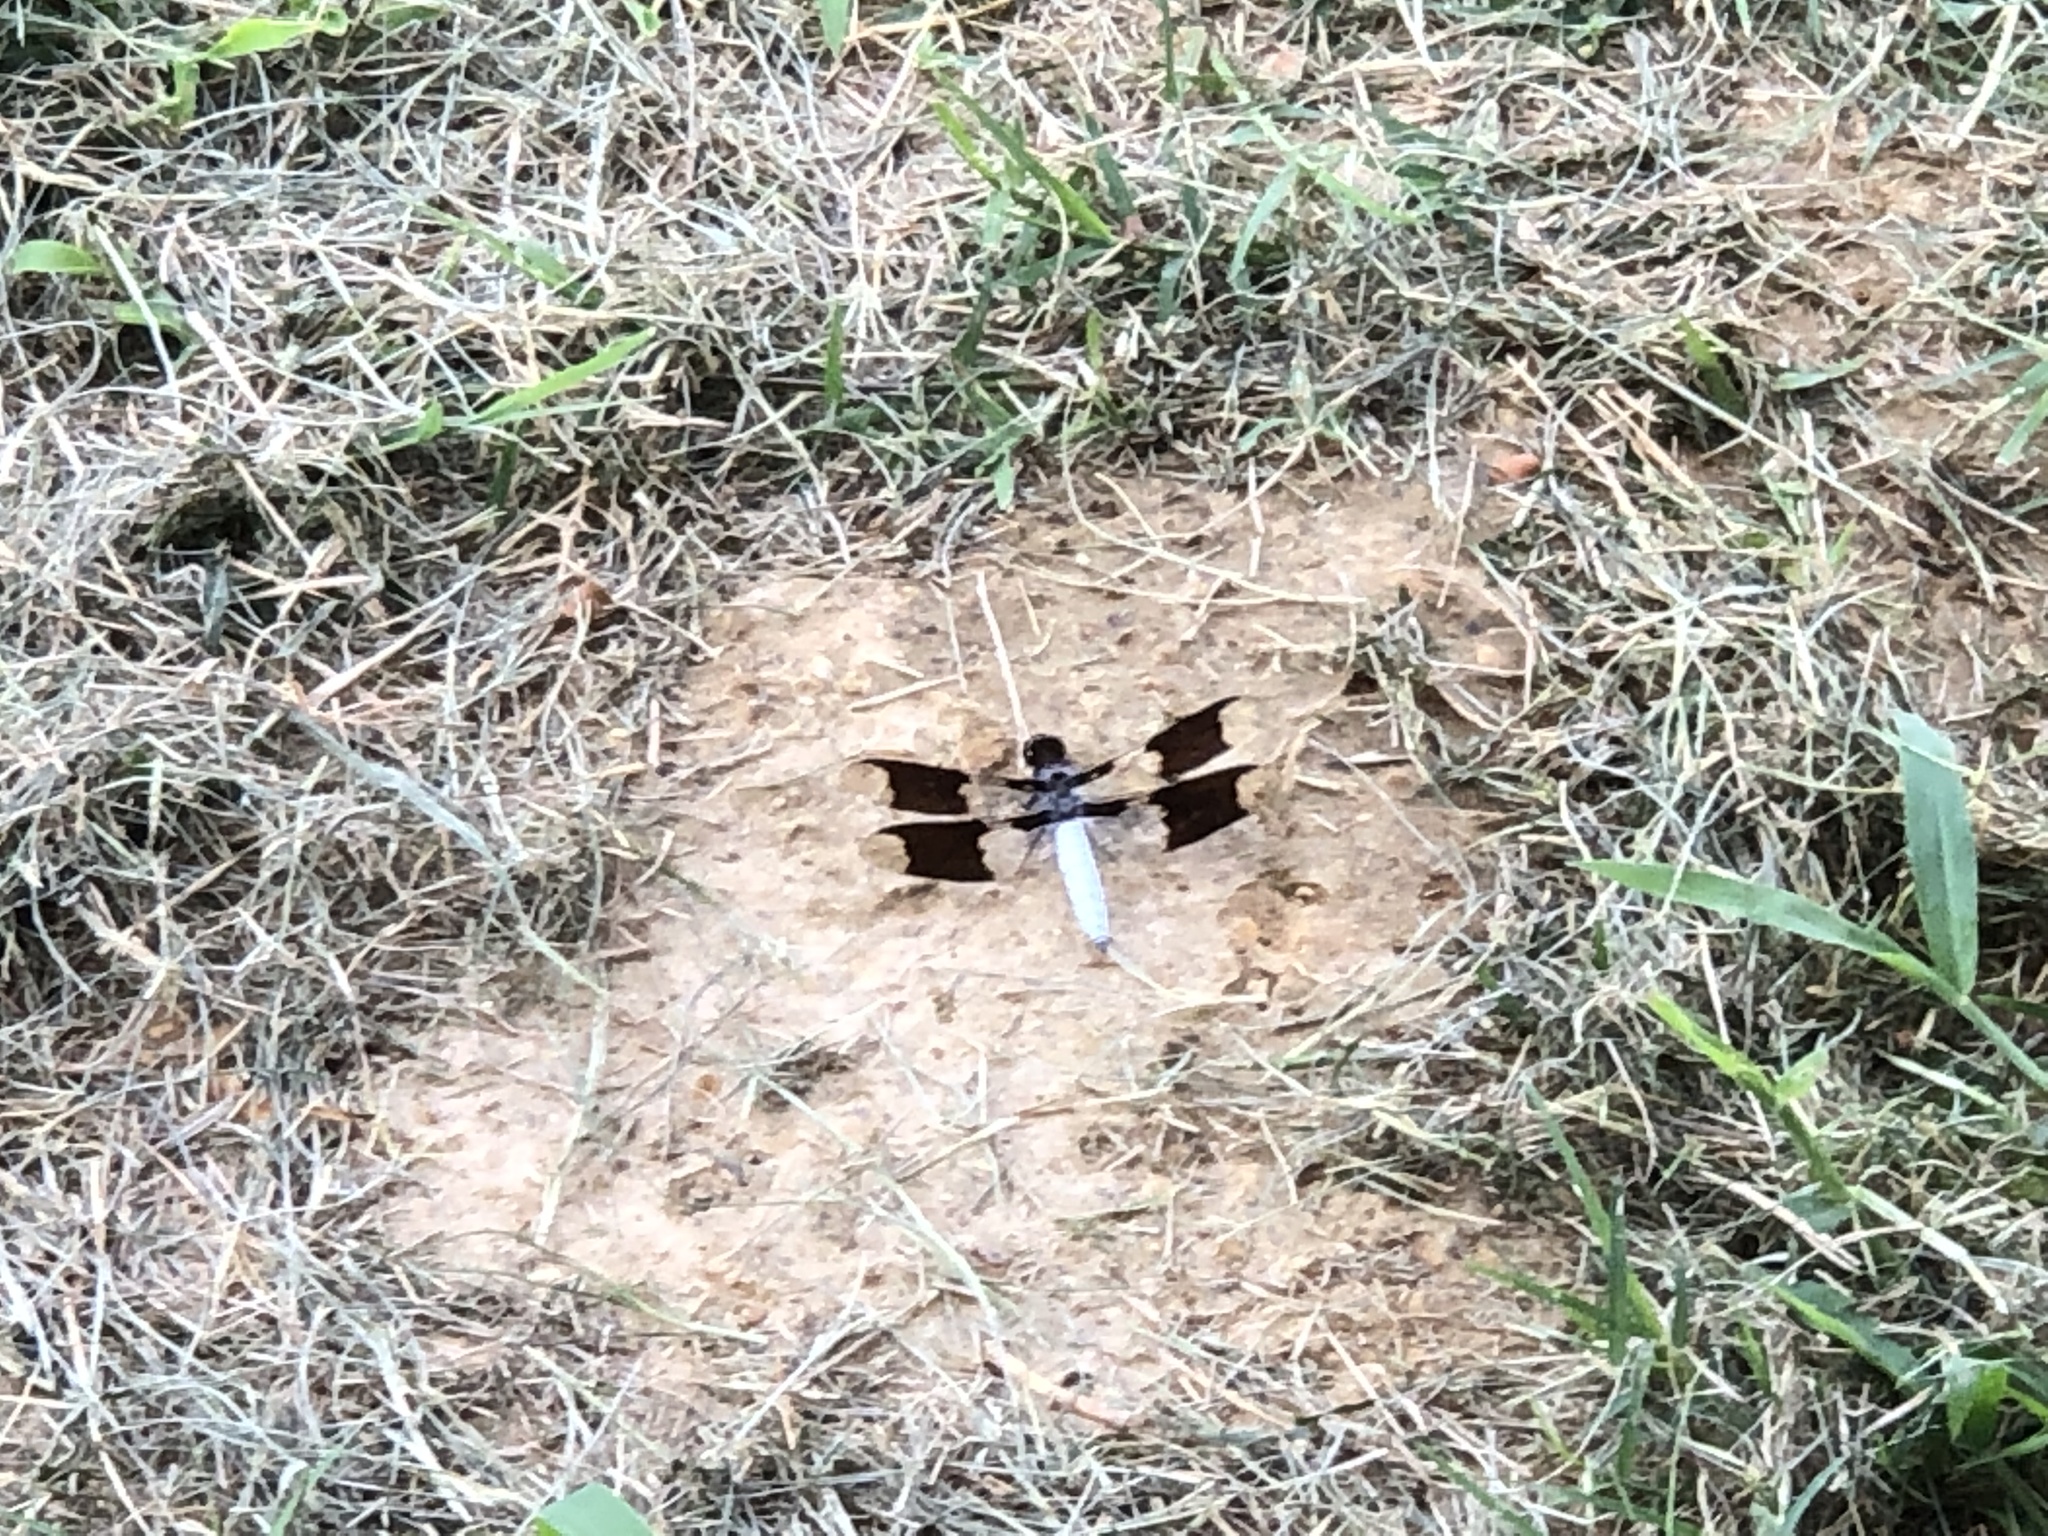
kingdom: Animalia
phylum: Arthropoda
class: Insecta
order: Odonata
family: Libellulidae
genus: Plathemis
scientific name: Plathemis lydia
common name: Common whitetail
